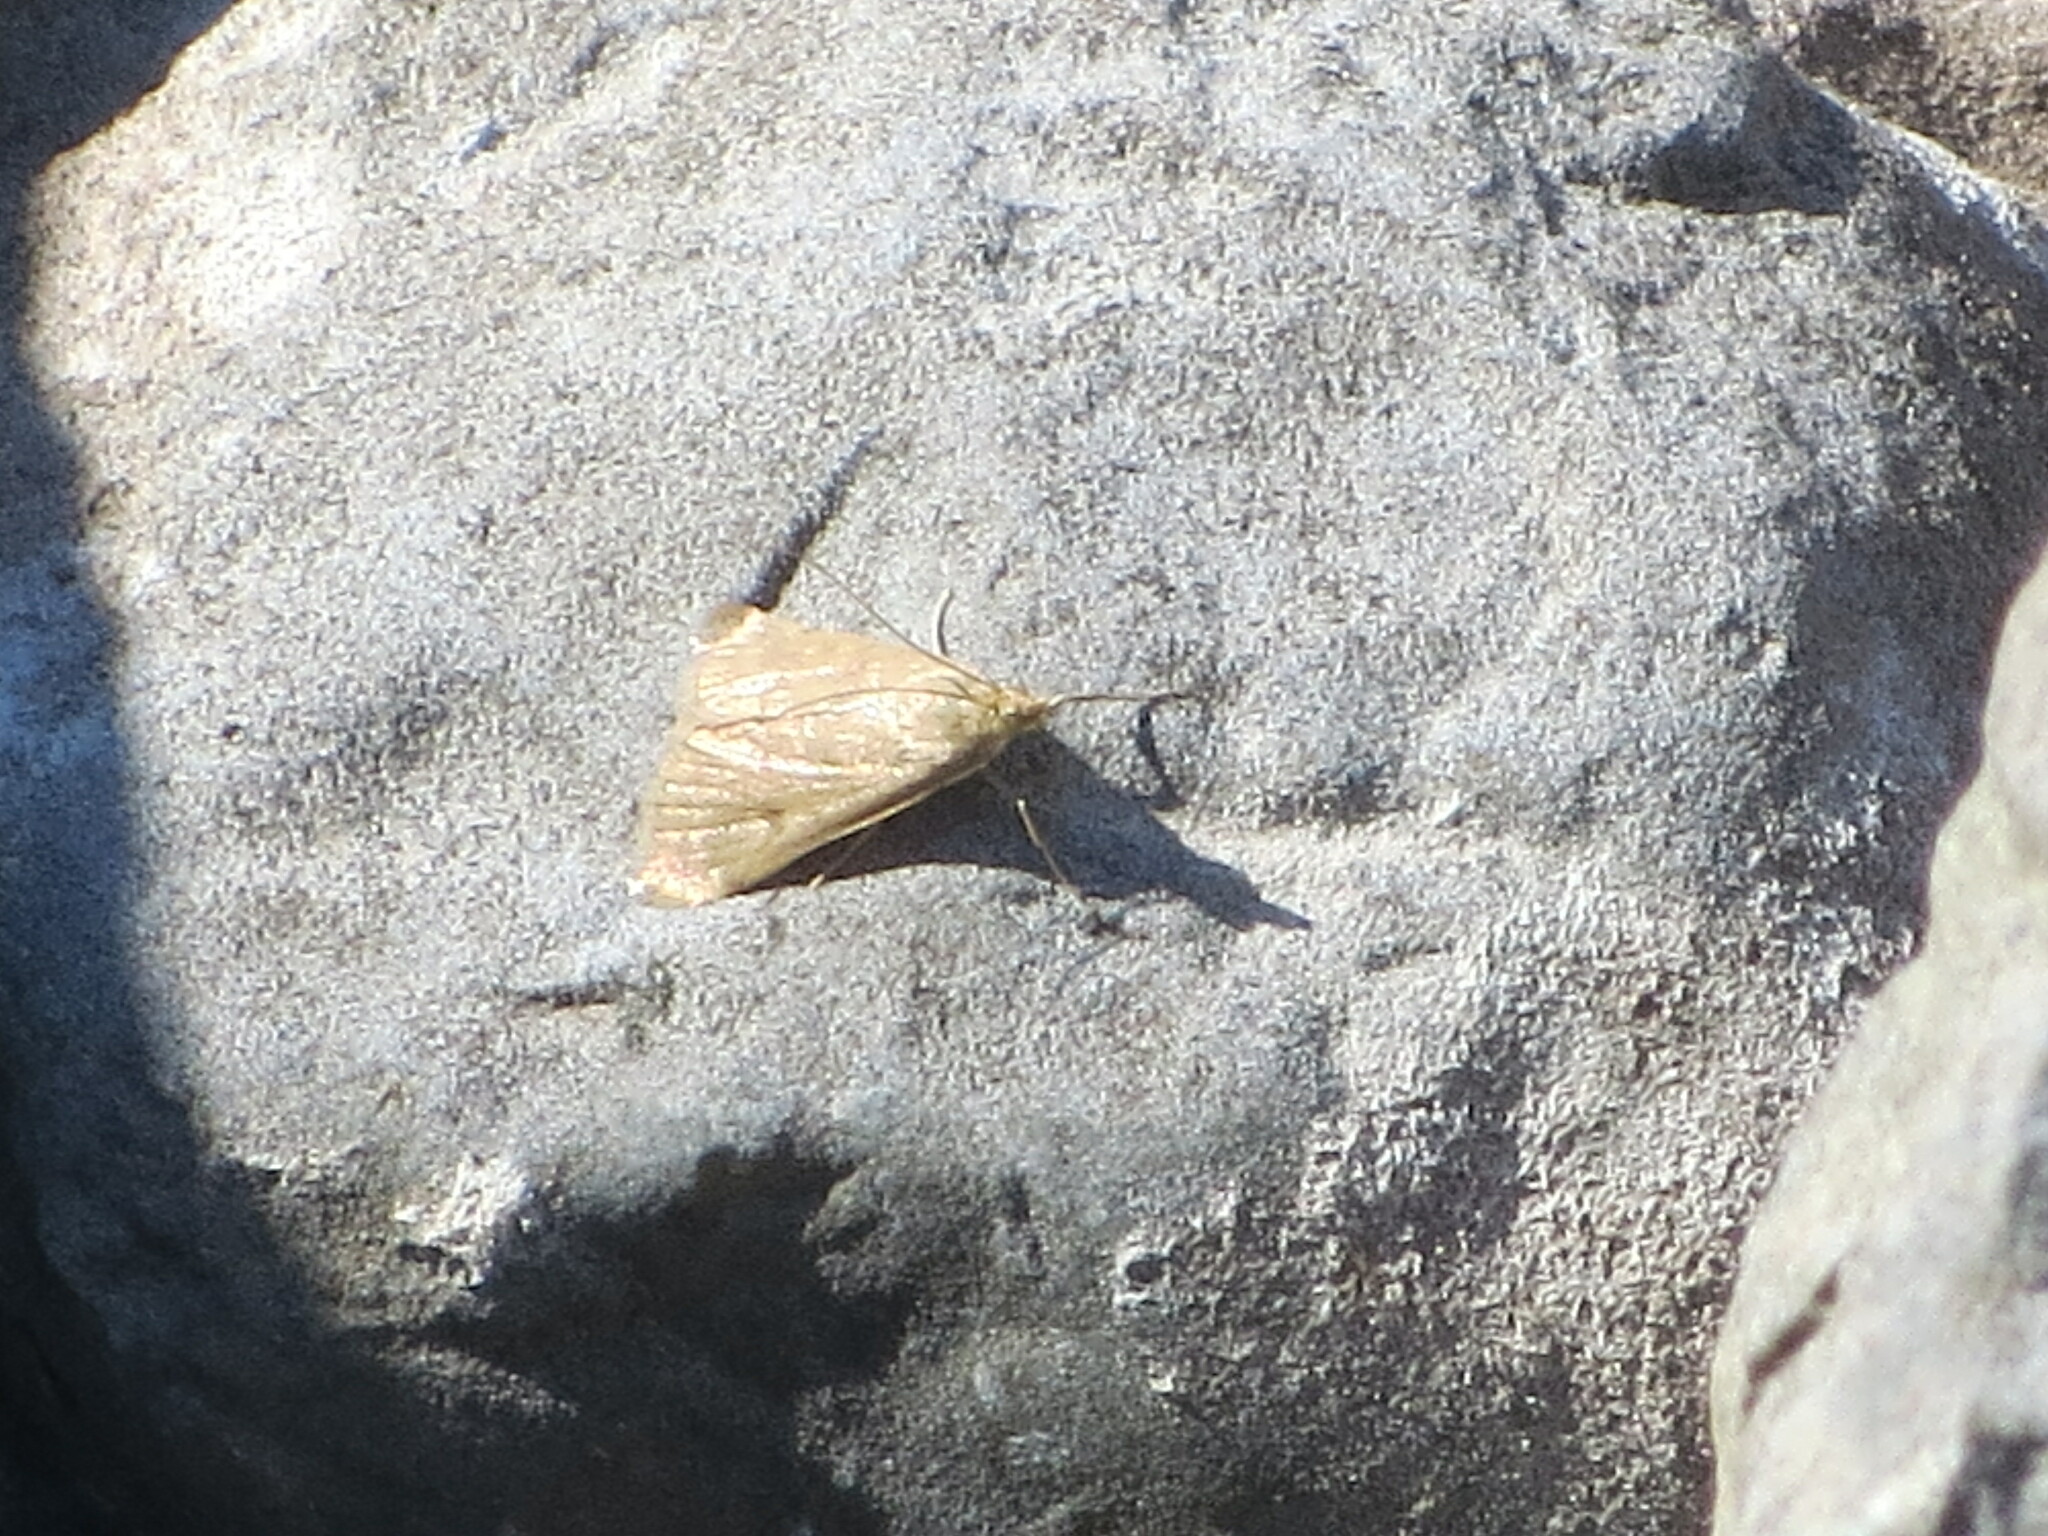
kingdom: Animalia
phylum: Arthropoda
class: Insecta
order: Lepidoptera
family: Crambidae
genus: Achyra
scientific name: Achyra rantalis
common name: Garden webworm
